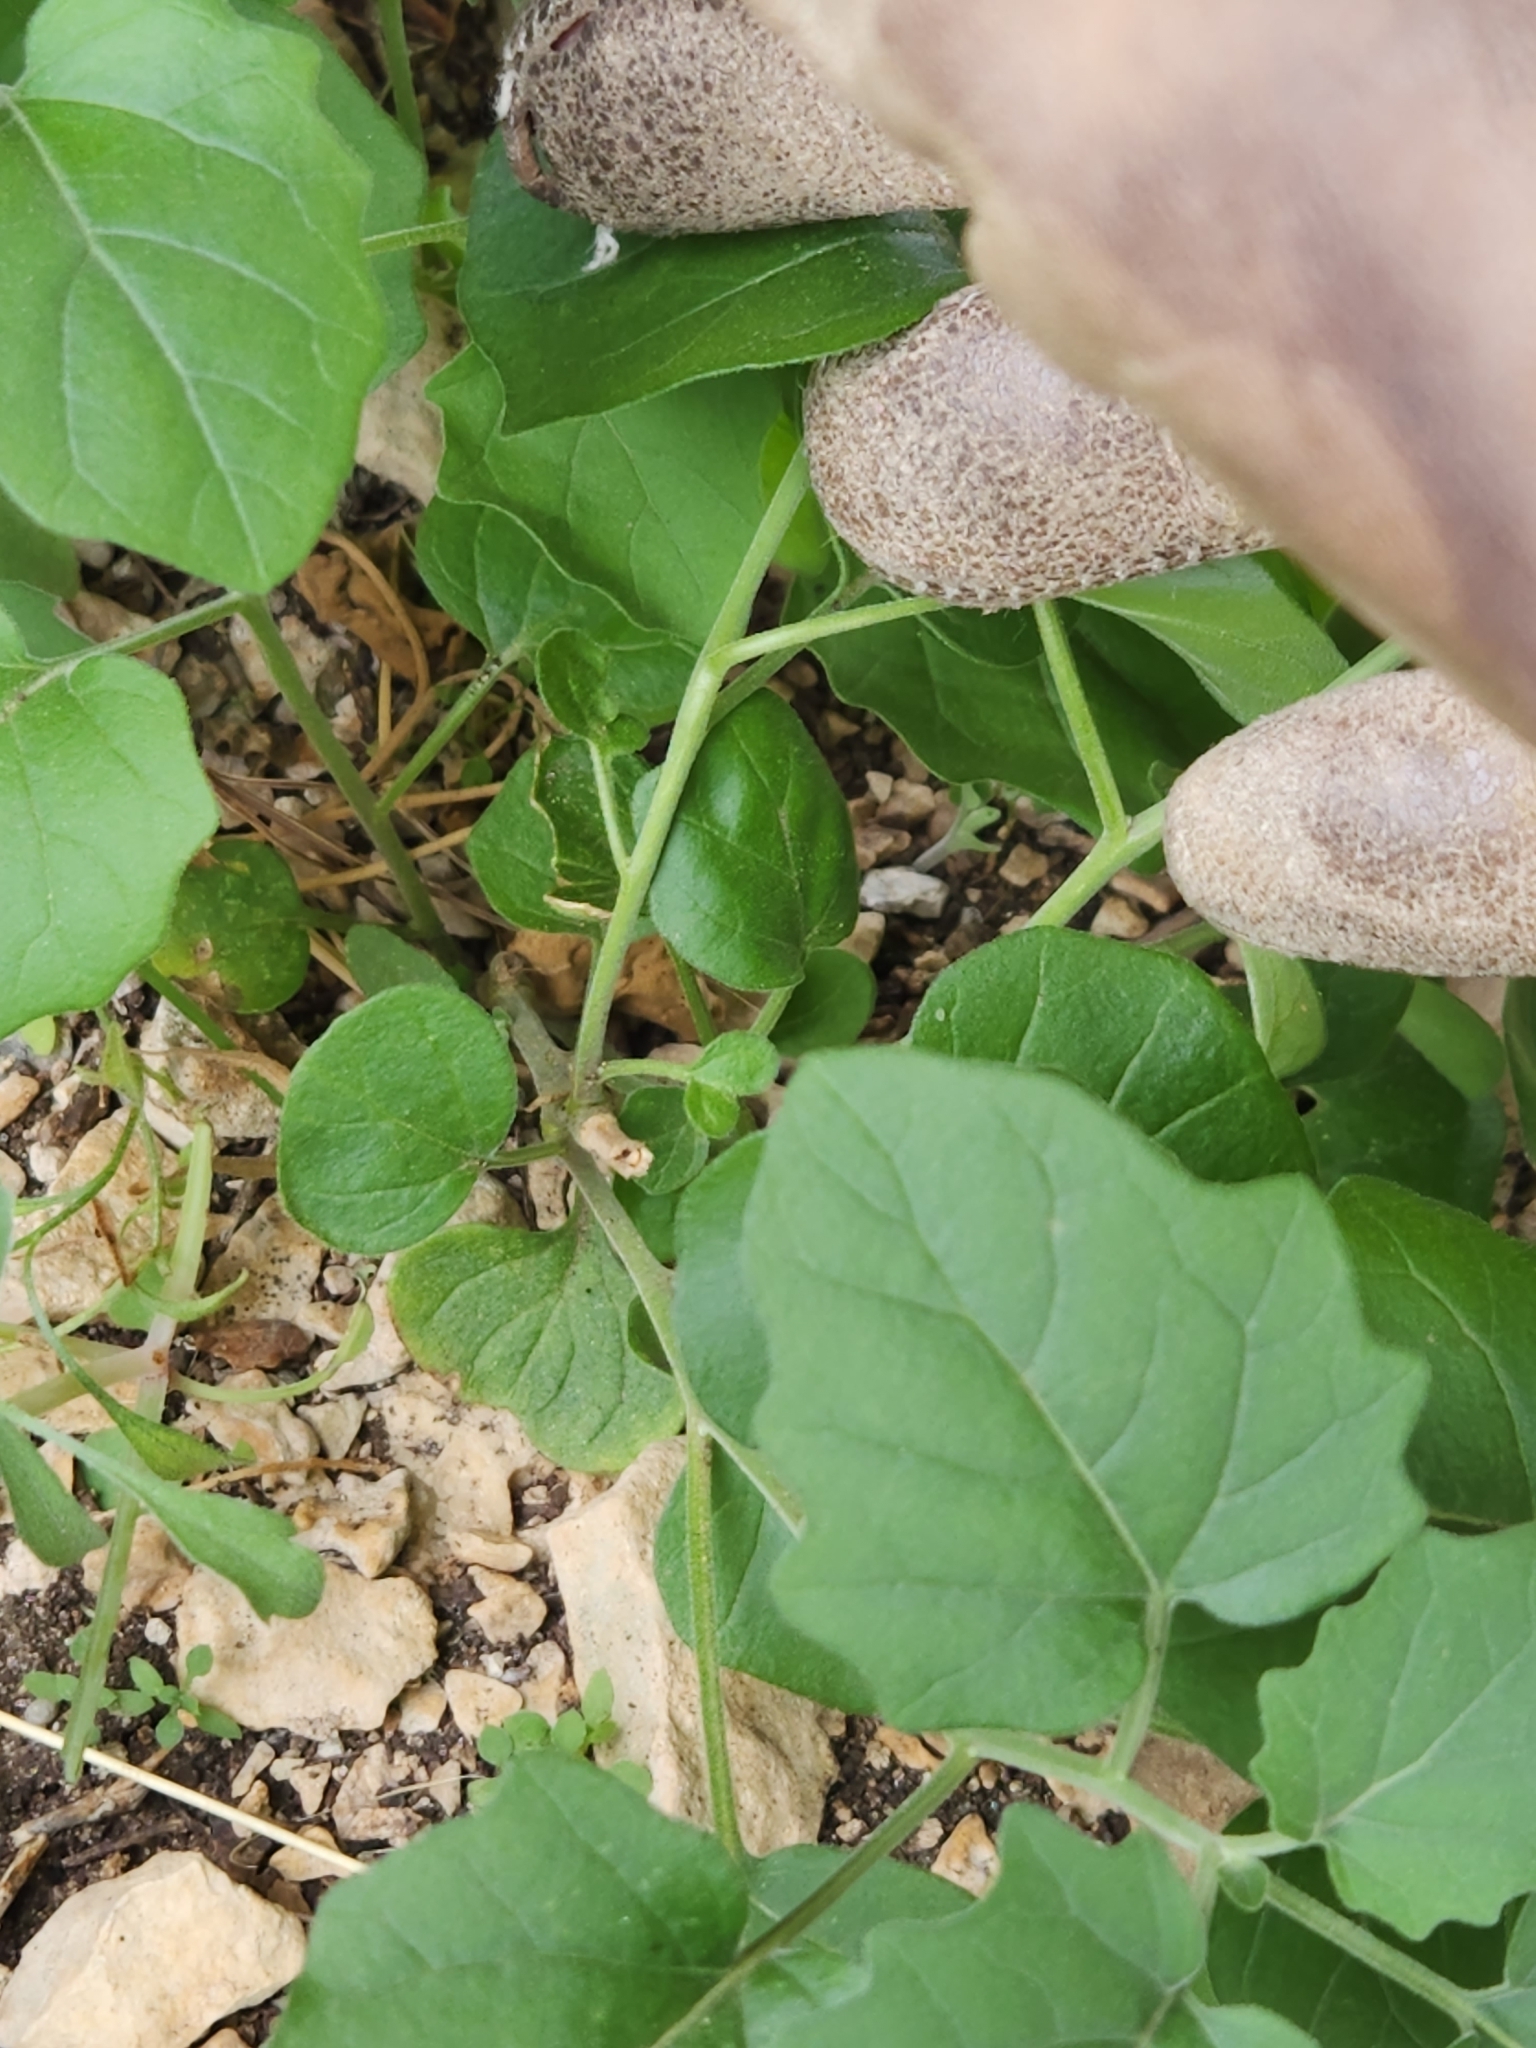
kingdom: Plantae
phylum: Tracheophyta
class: Magnoliopsida
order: Solanales
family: Solanaceae
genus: Physalis
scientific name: Physalis cinerascens
